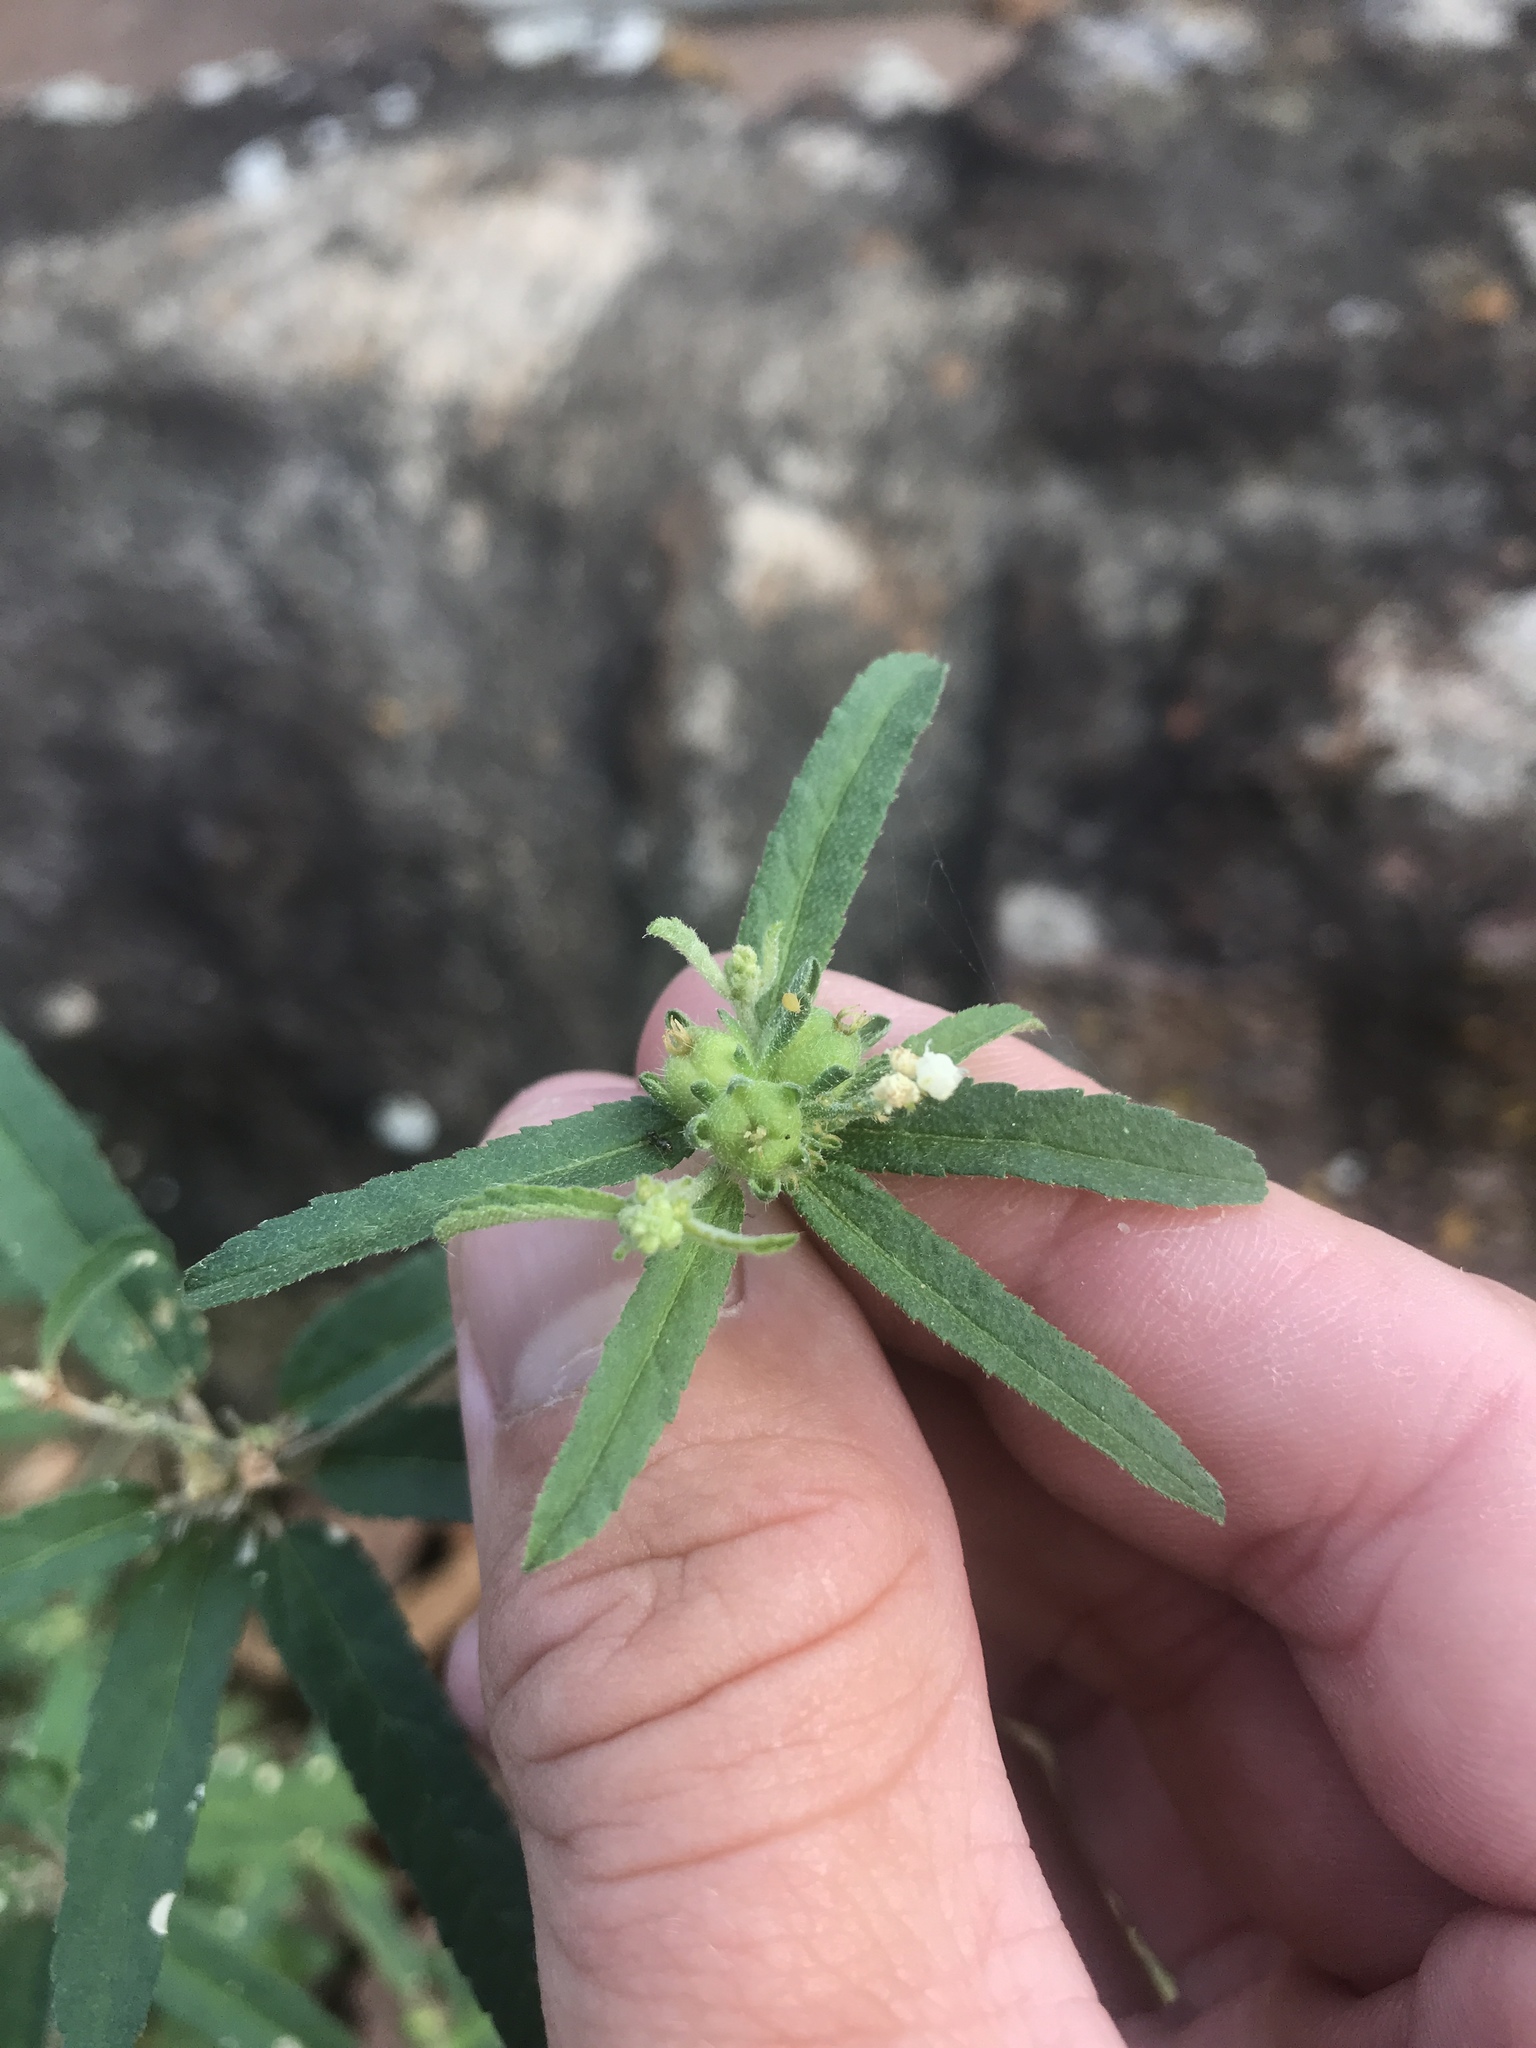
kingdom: Plantae
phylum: Tracheophyta
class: Magnoliopsida
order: Malpighiales
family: Euphorbiaceae
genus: Croton
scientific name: Croton glandulosus
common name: Tropic croton
